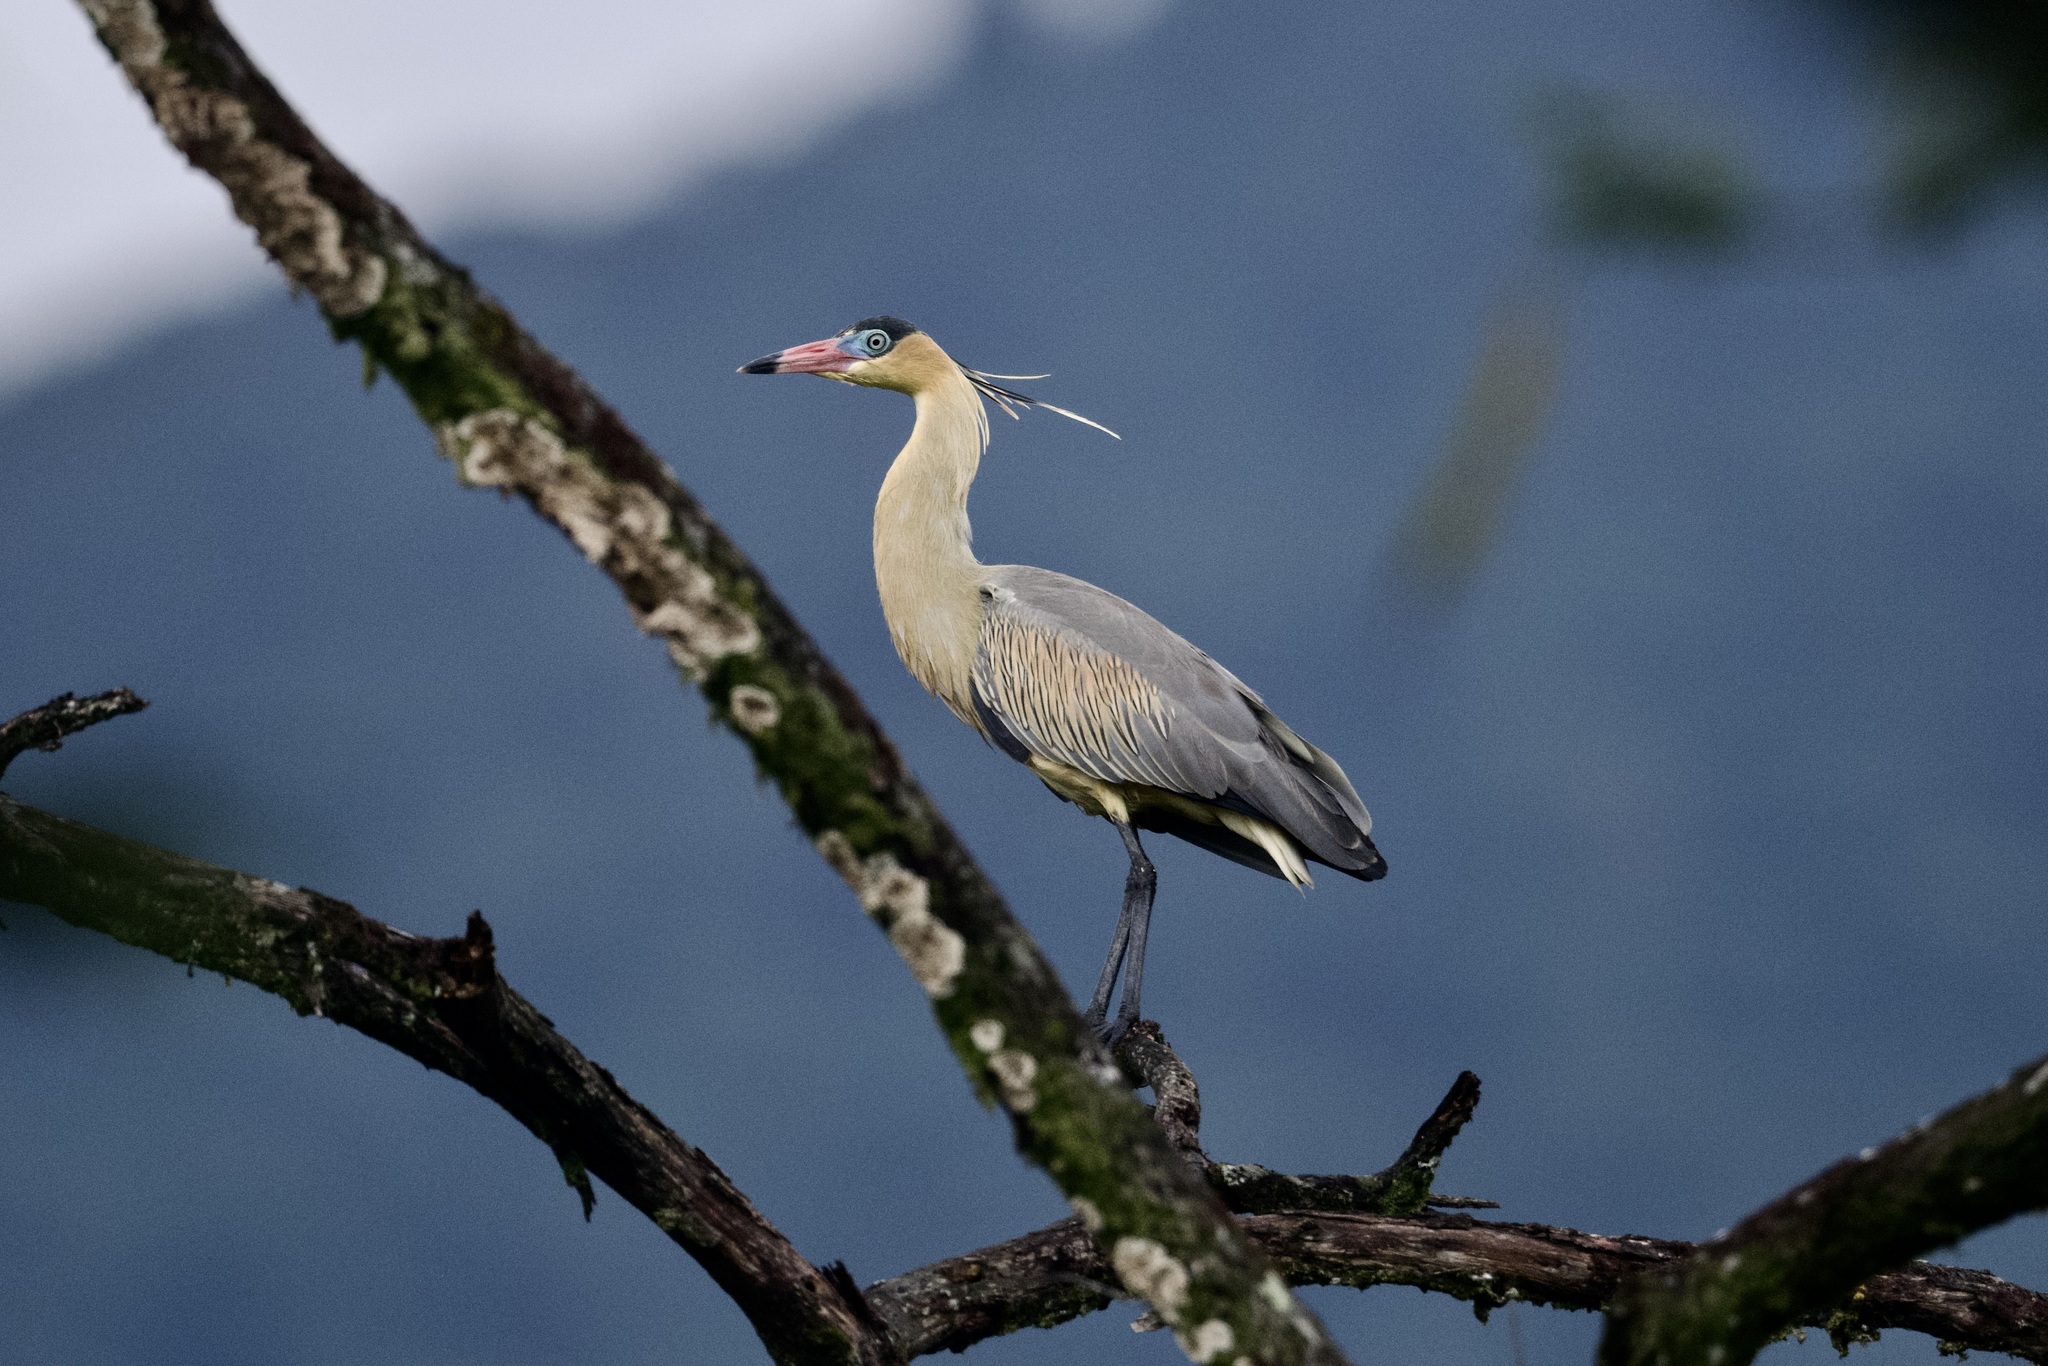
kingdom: Animalia
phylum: Chordata
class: Aves
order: Pelecaniformes
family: Ardeidae
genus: Syrigma
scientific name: Syrigma sibilatrix
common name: Whistling heron
